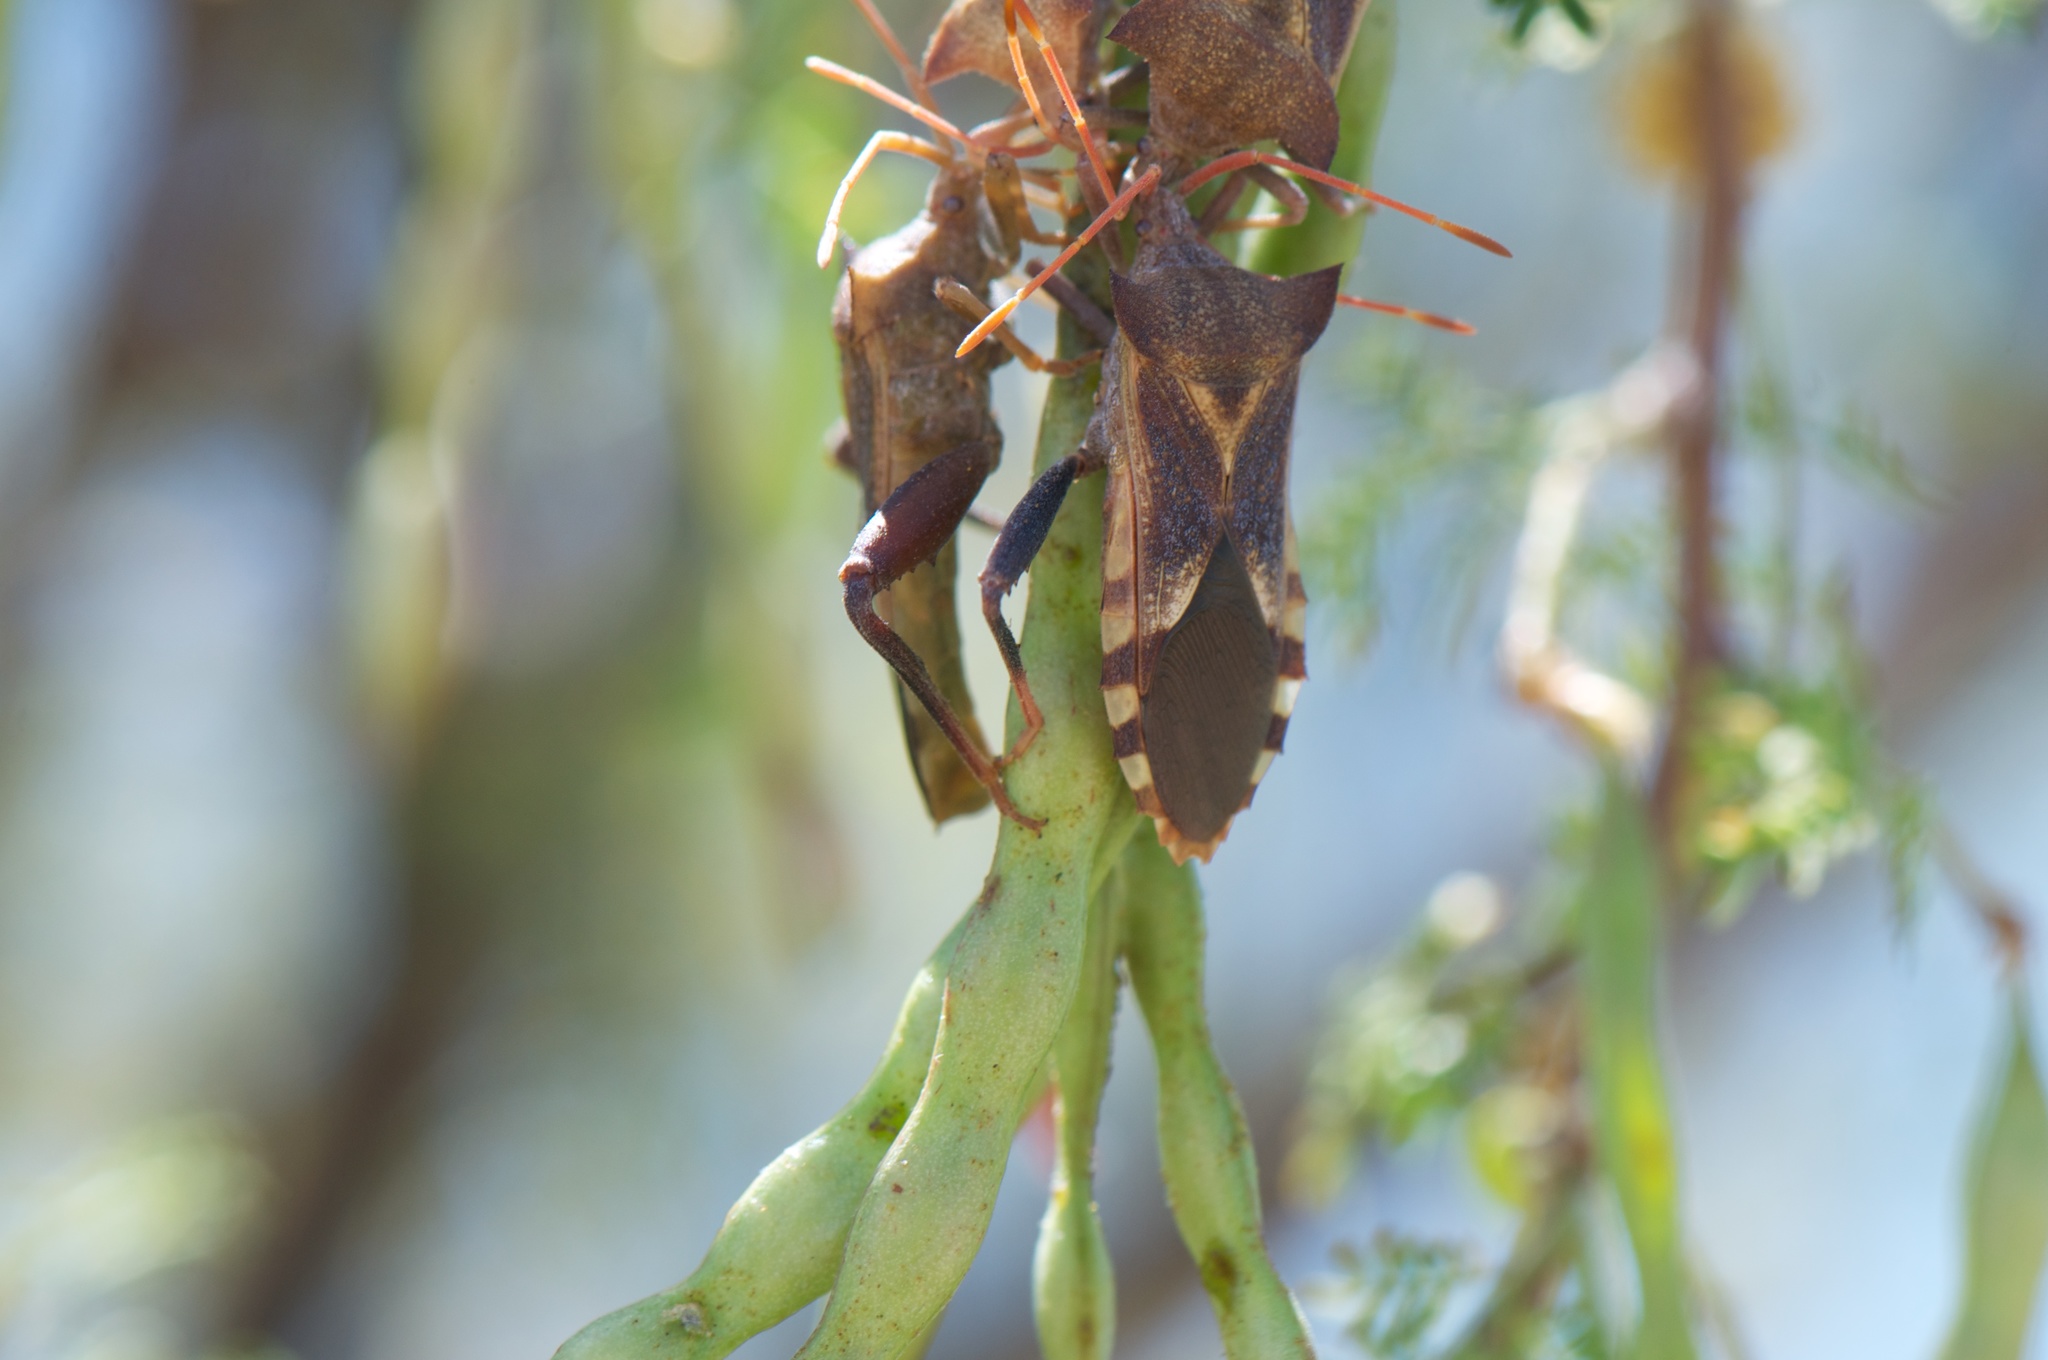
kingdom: Animalia
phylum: Arthropoda
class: Insecta
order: Hemiptera
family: Coreidae
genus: Mozena
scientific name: Mozena arizonensis
